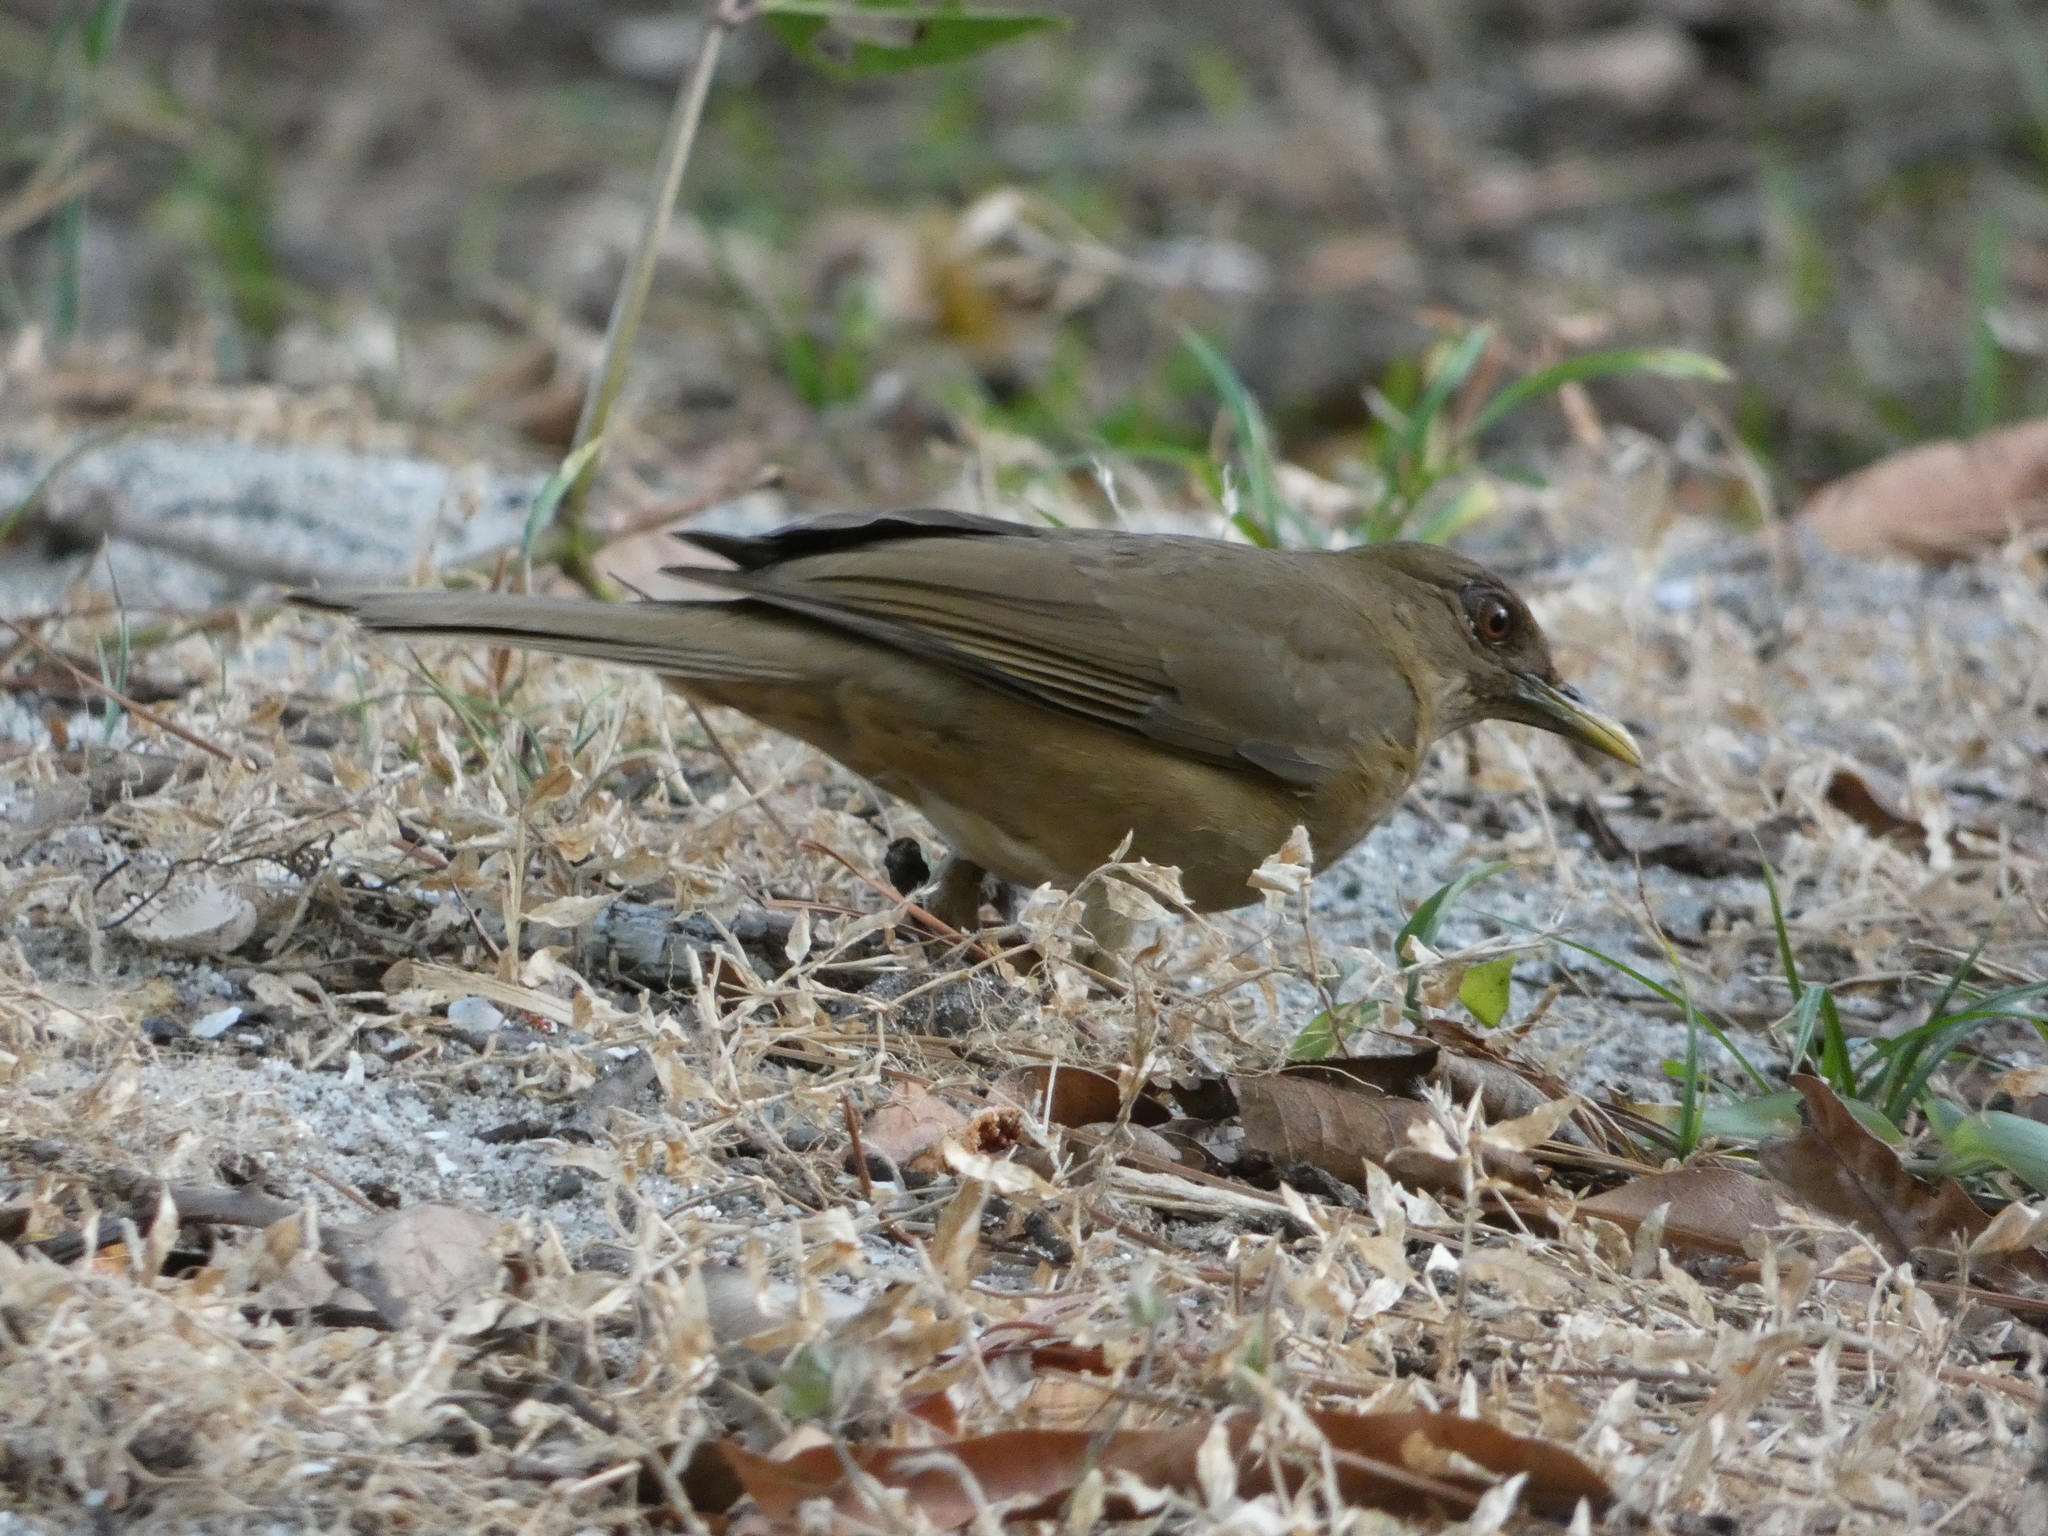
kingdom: Animalia
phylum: Chordata
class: Aves
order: Passeriformes
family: Turdidae
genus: Turdus
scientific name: Turdus grayi
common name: Clay-colored thrush
